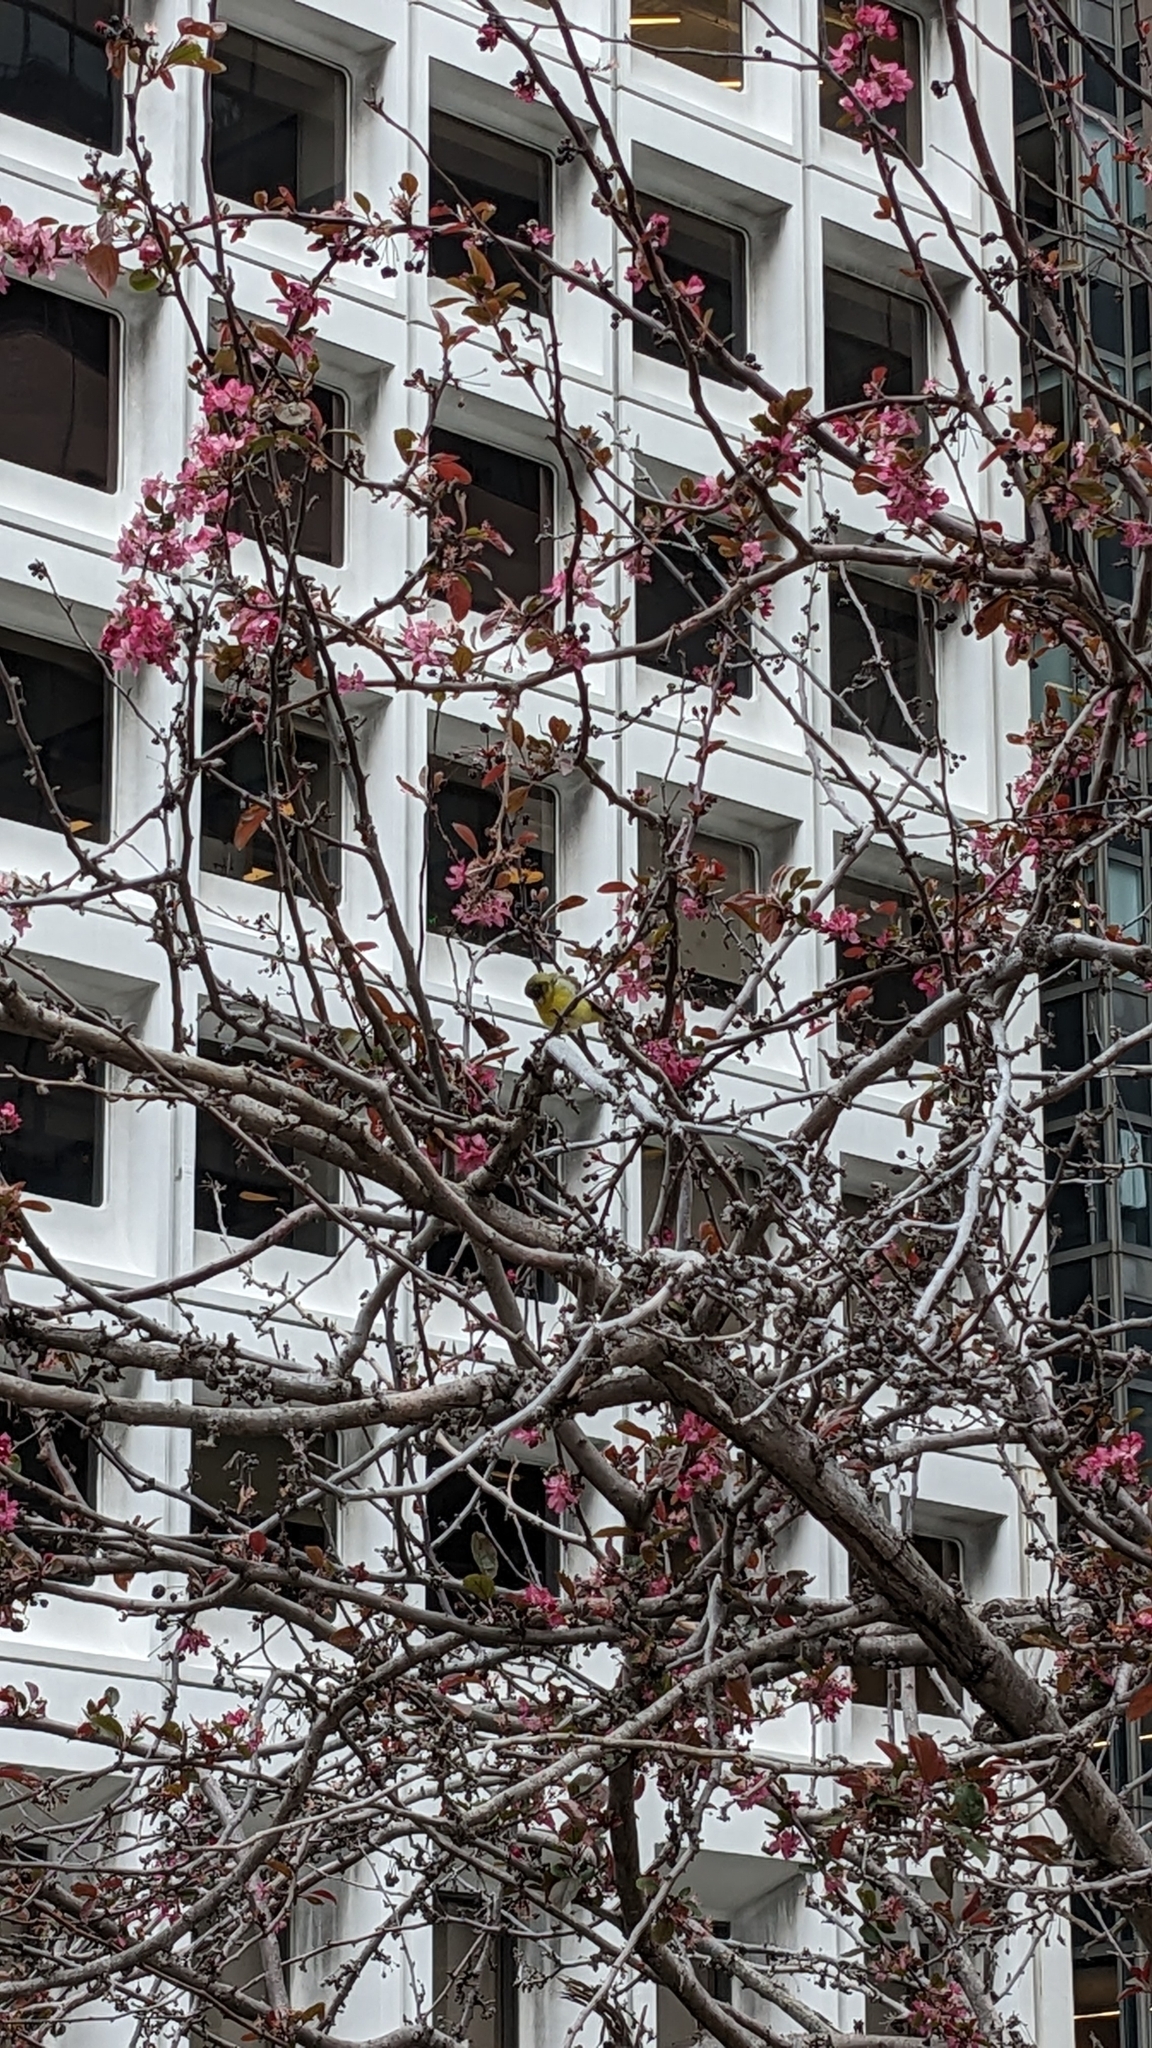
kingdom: Animalia
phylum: Chordata
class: Aves
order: Passeriformes
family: Fringillidae
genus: Spinus
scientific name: Spinus psaltria
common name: Lesser goldfinch
